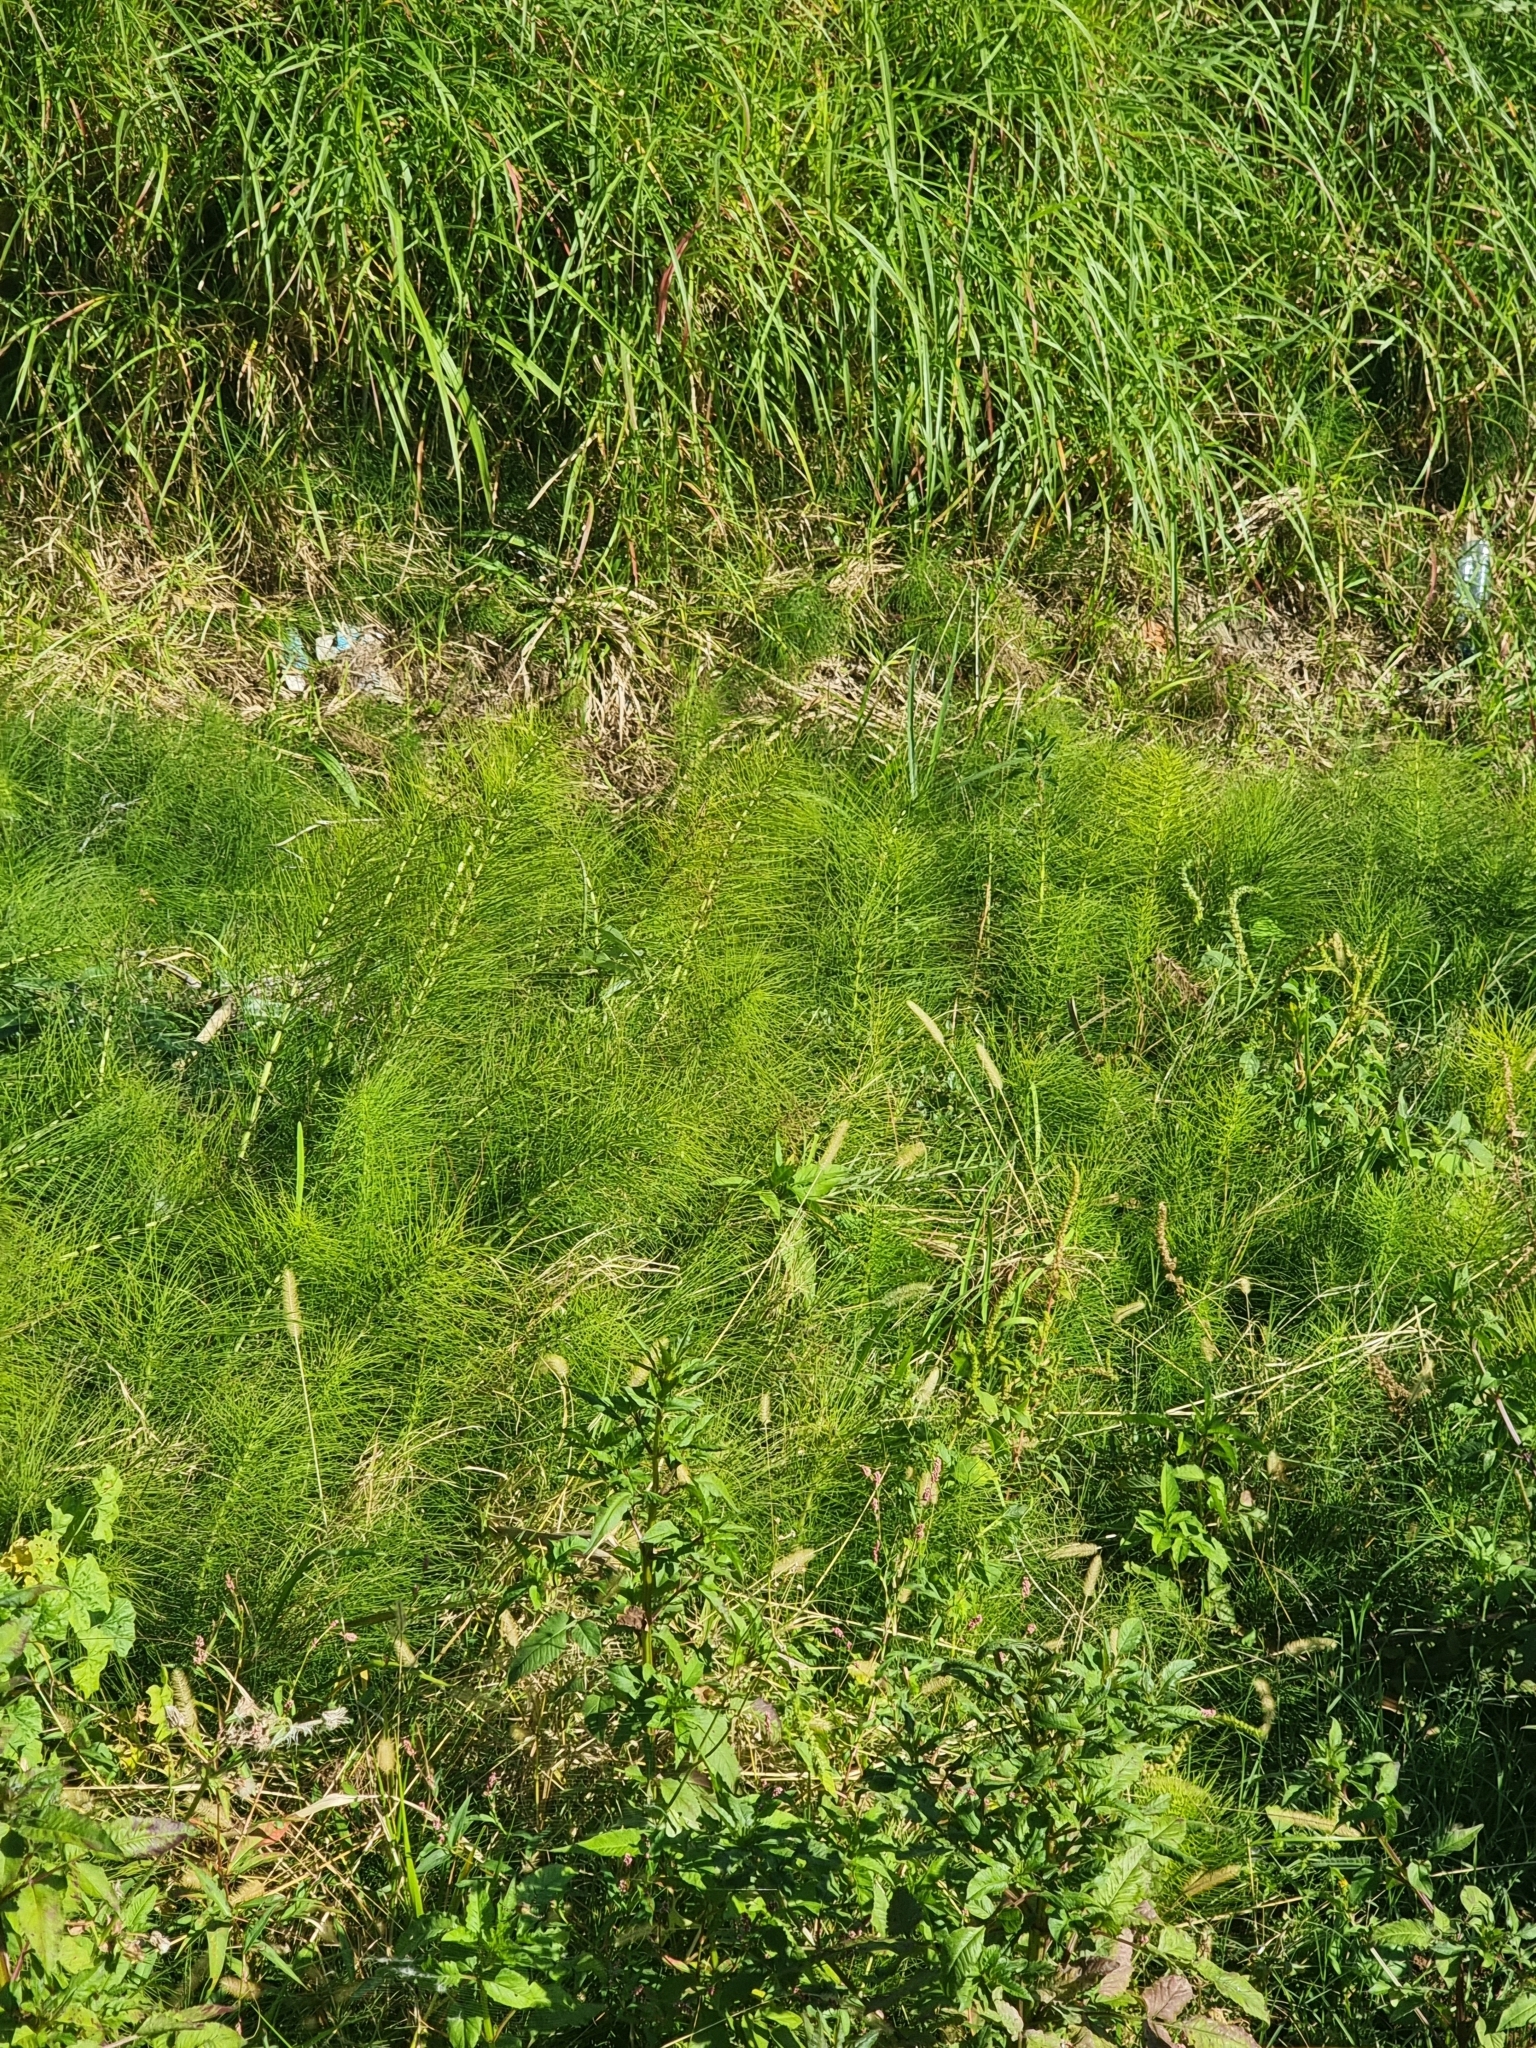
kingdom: Plantae
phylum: Tracheophyta
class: Polypodiopsida
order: Equisetales
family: Equisetaceae
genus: Equisetum
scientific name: Equisetum telmateia
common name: Great horsetail
